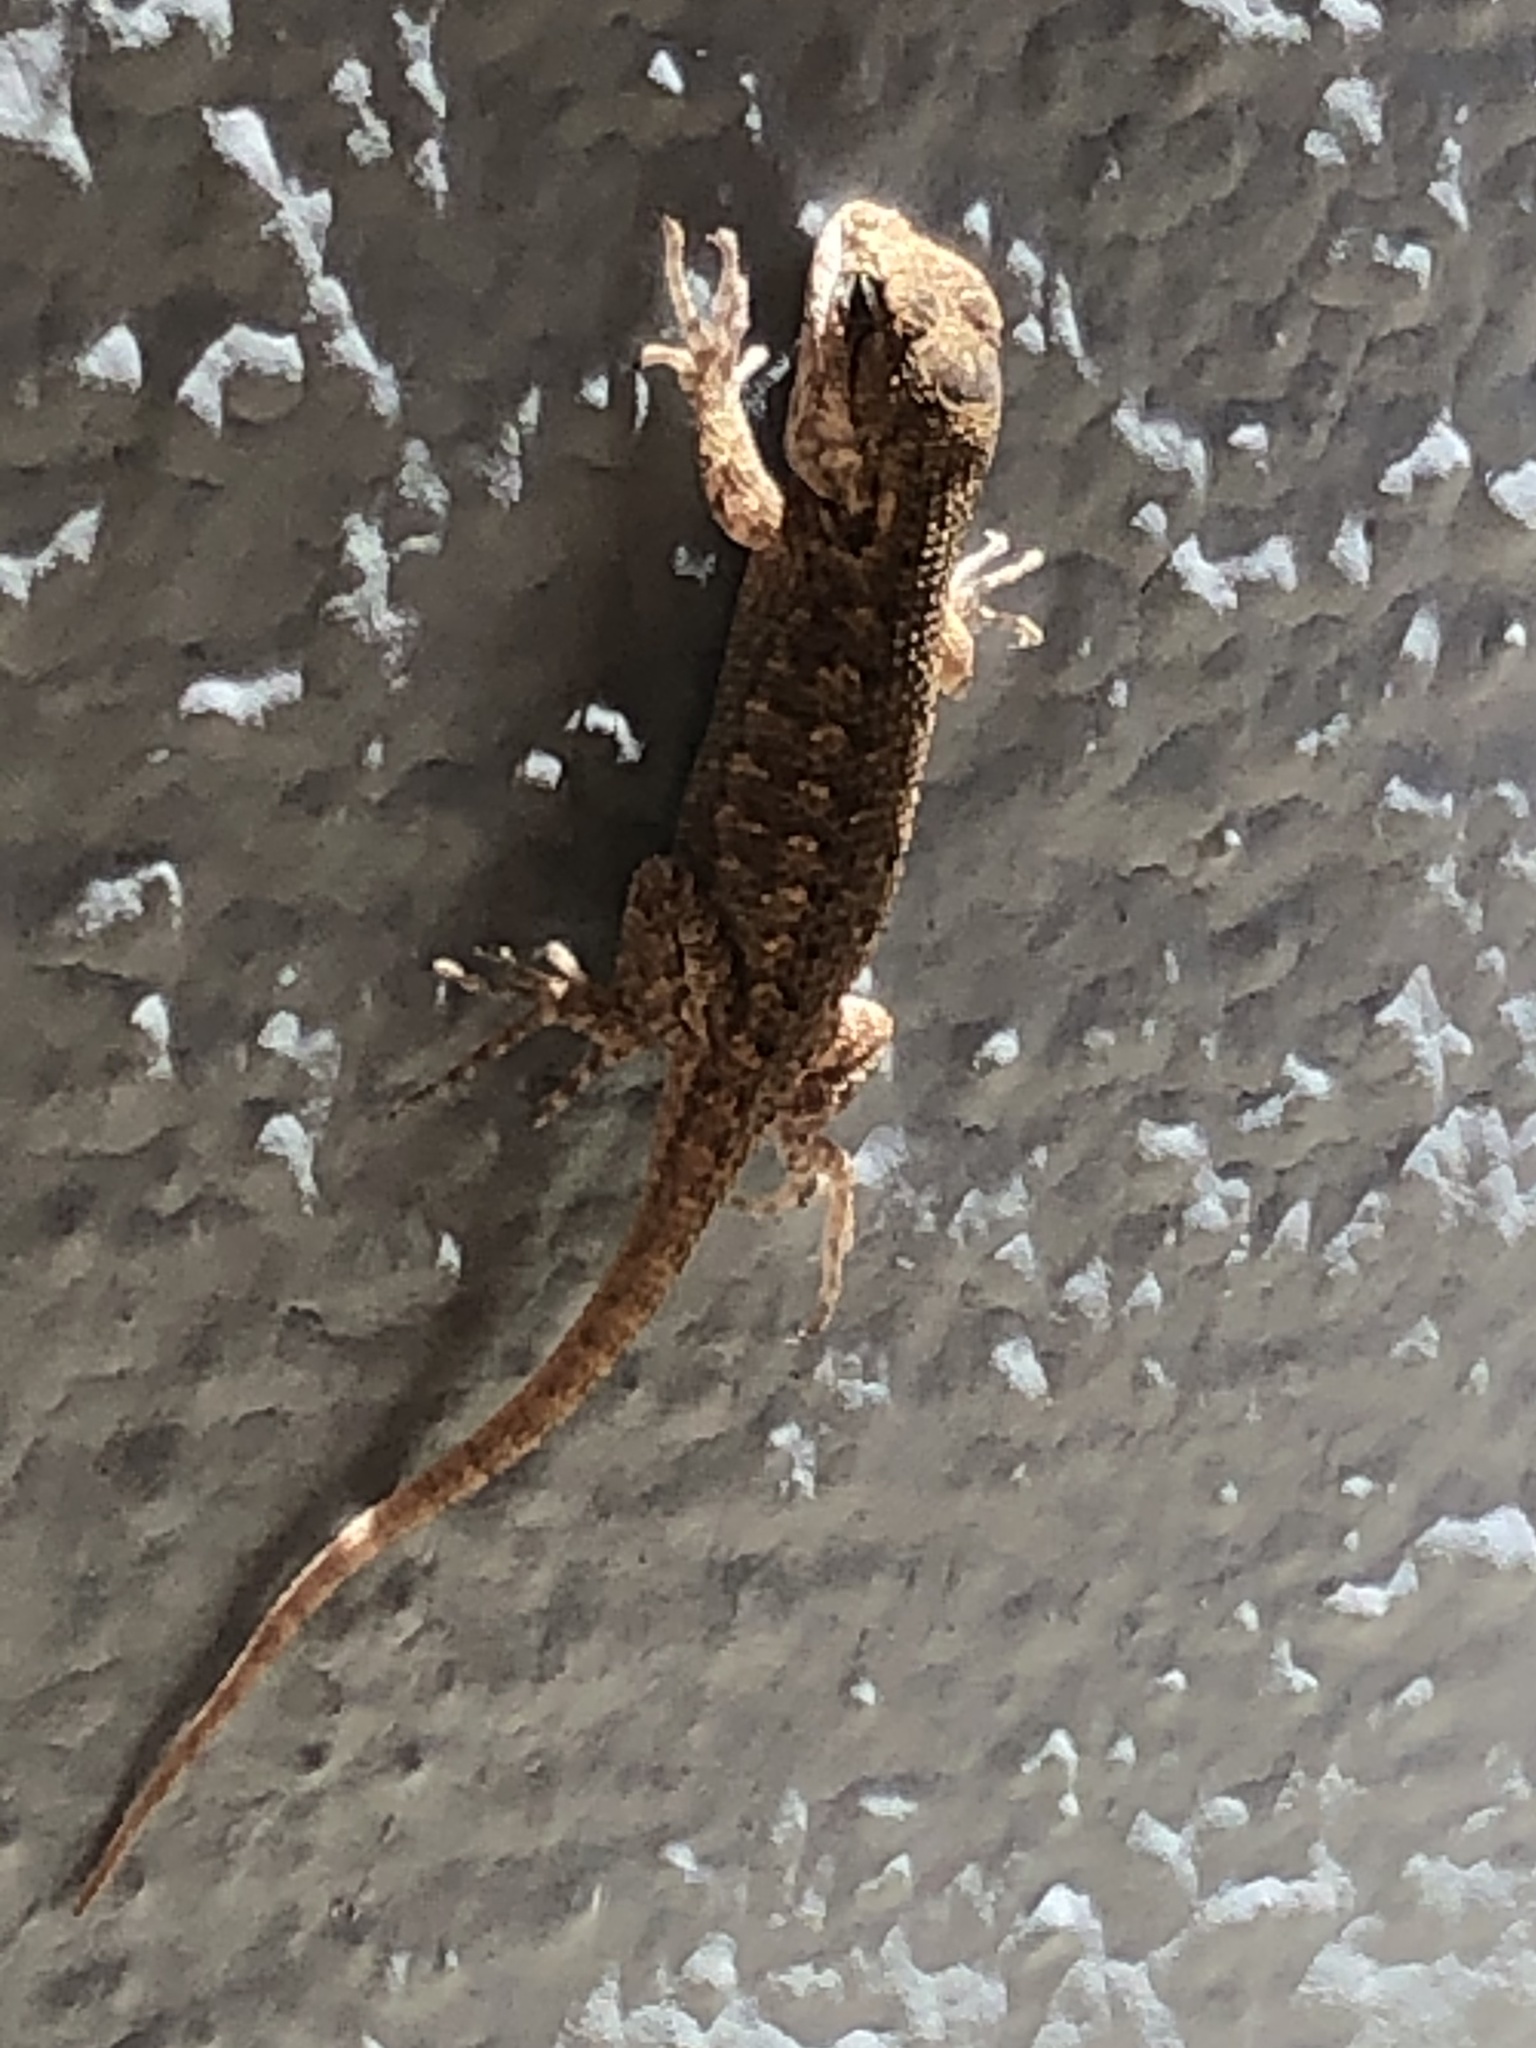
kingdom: Animalia
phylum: Chordata
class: Squamata
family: Phrynosomatidae
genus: Sceloporus
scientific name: Sceloporus occidentalis
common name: Western fence lizard
